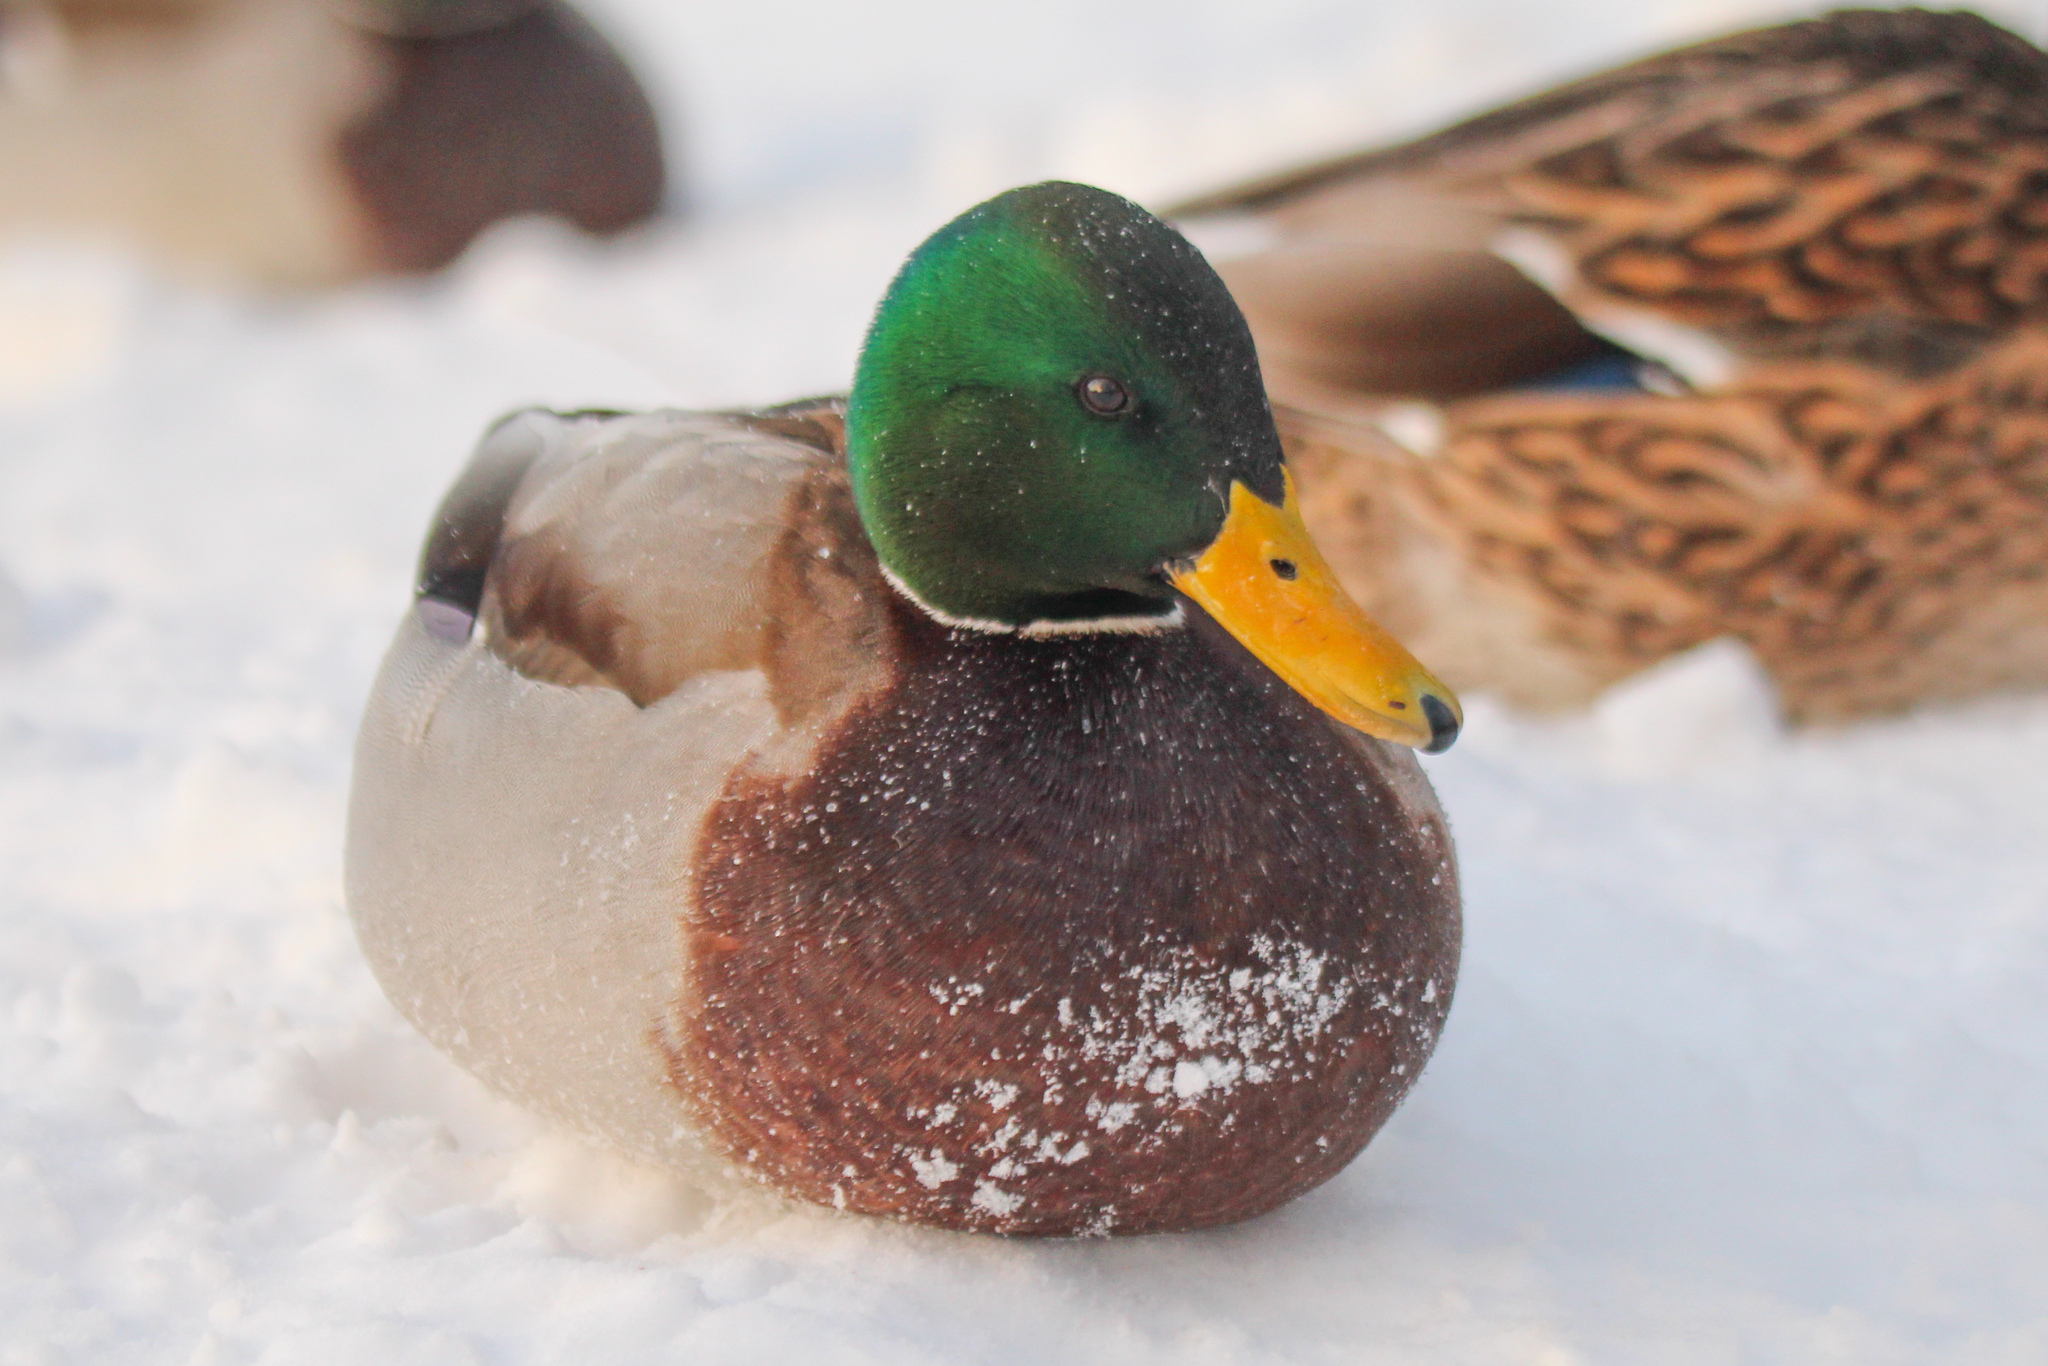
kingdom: Animalia
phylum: Chordata
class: Aves
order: Anseriformes
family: Anatidae
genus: Anas
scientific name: Anas platyrhynchos
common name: Mallard
